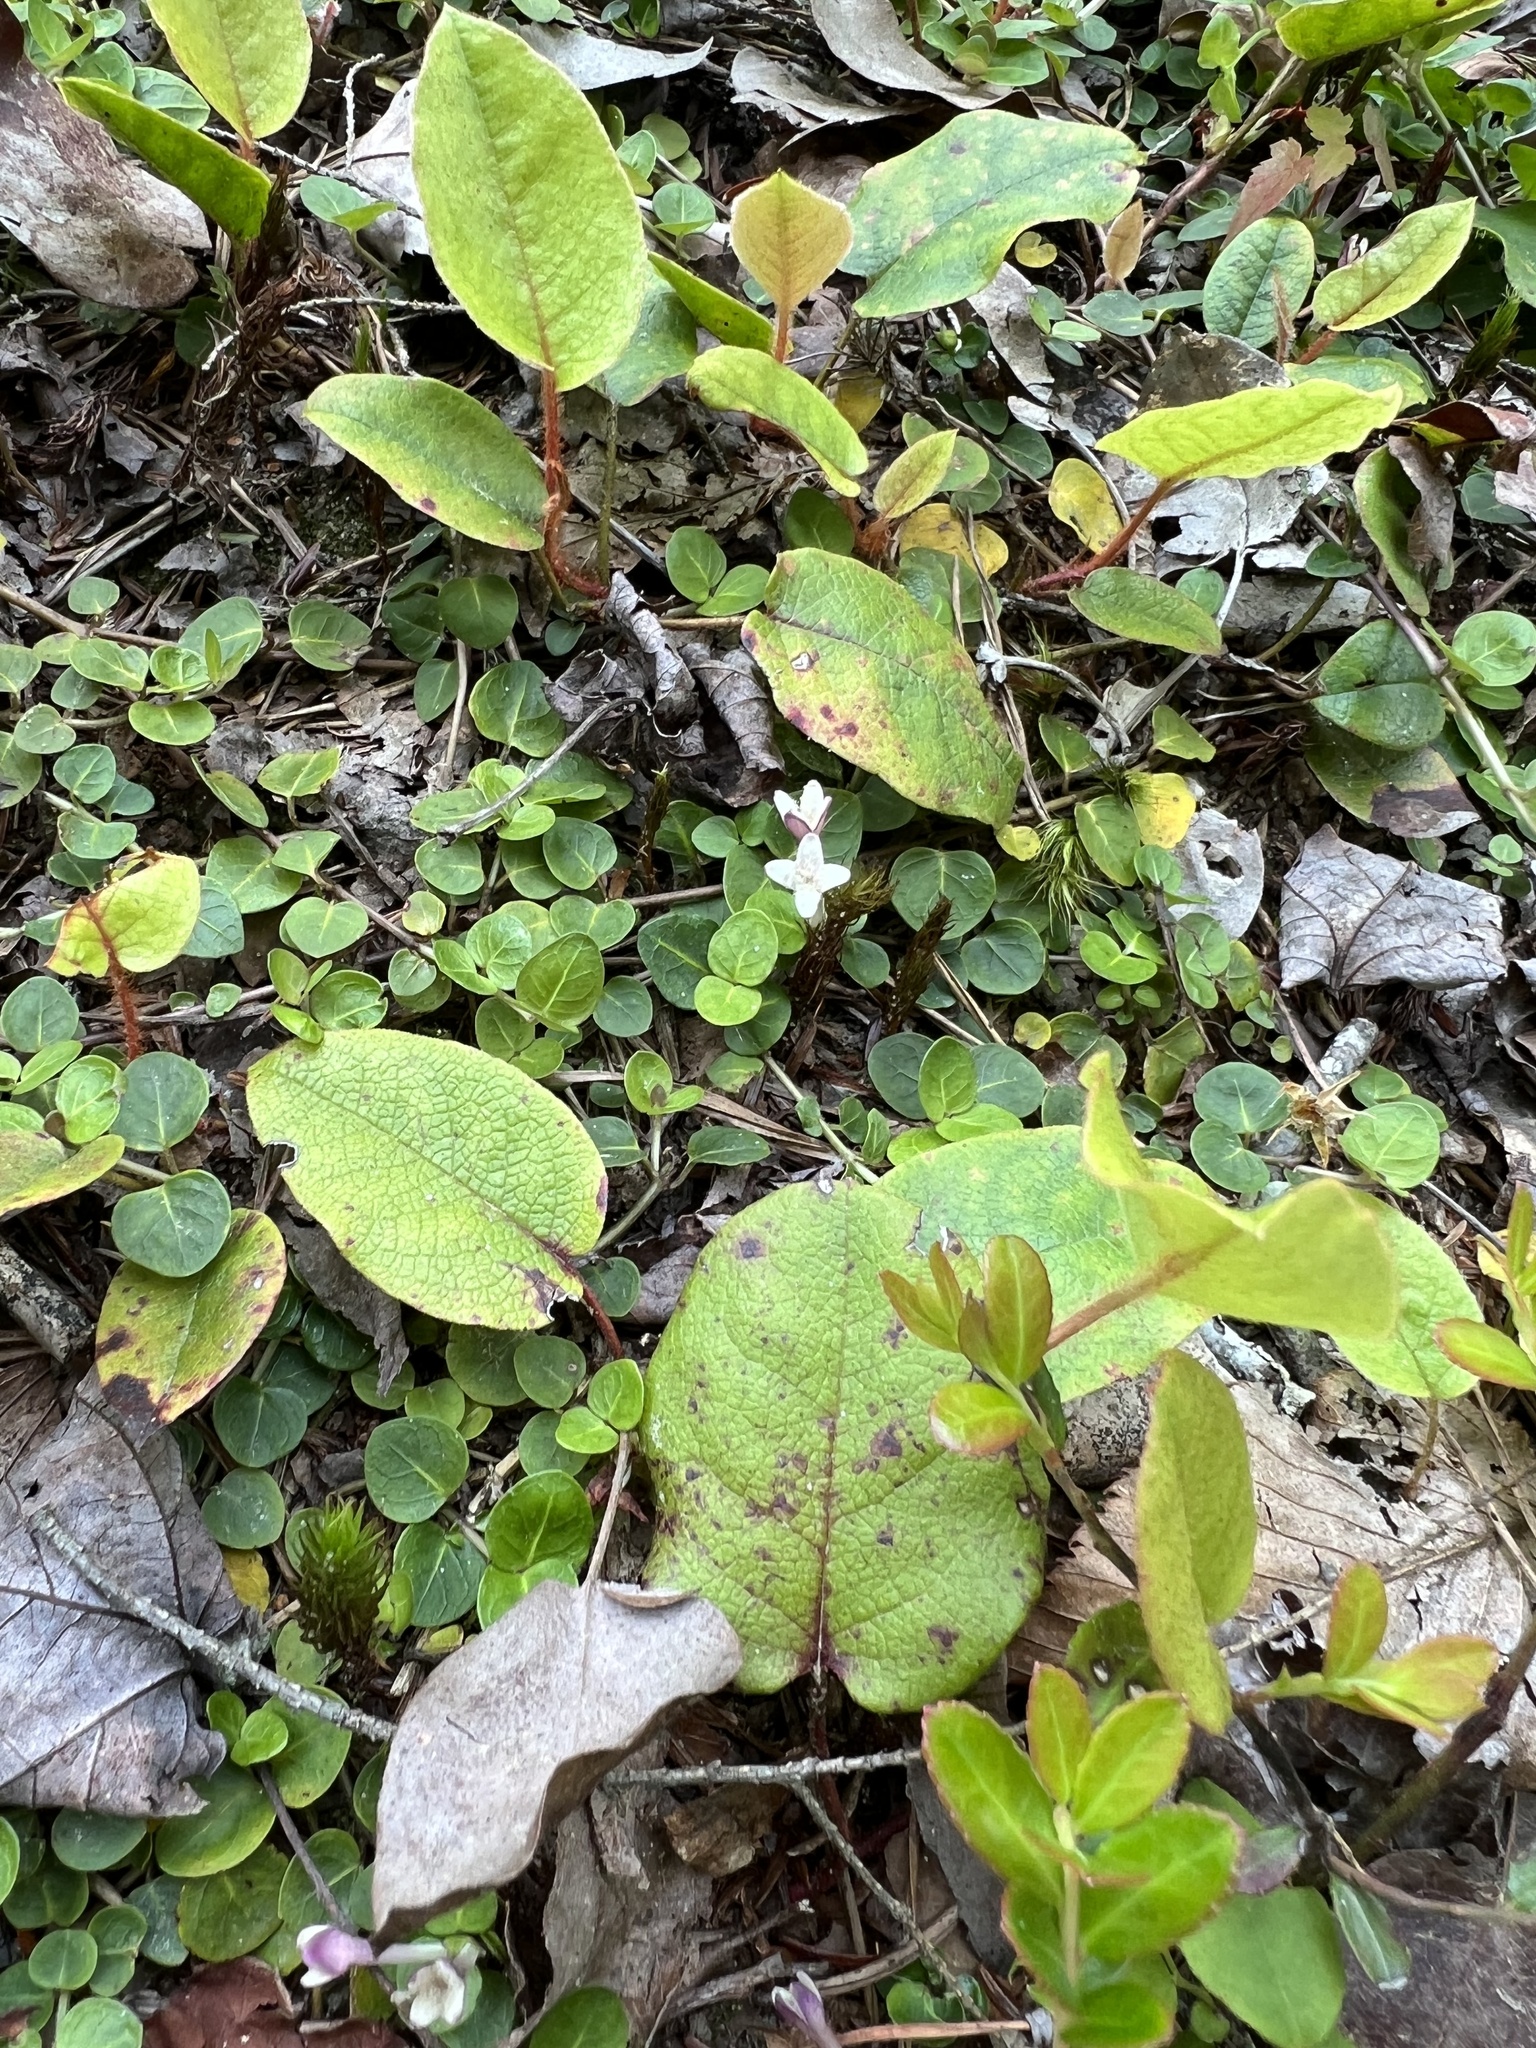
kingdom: Plantae
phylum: Tracheophyta
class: Magnoliopsida
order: Gentianales
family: Rubiaceae
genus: Mitchella
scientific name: Mitchella repens
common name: Partridge-berry
